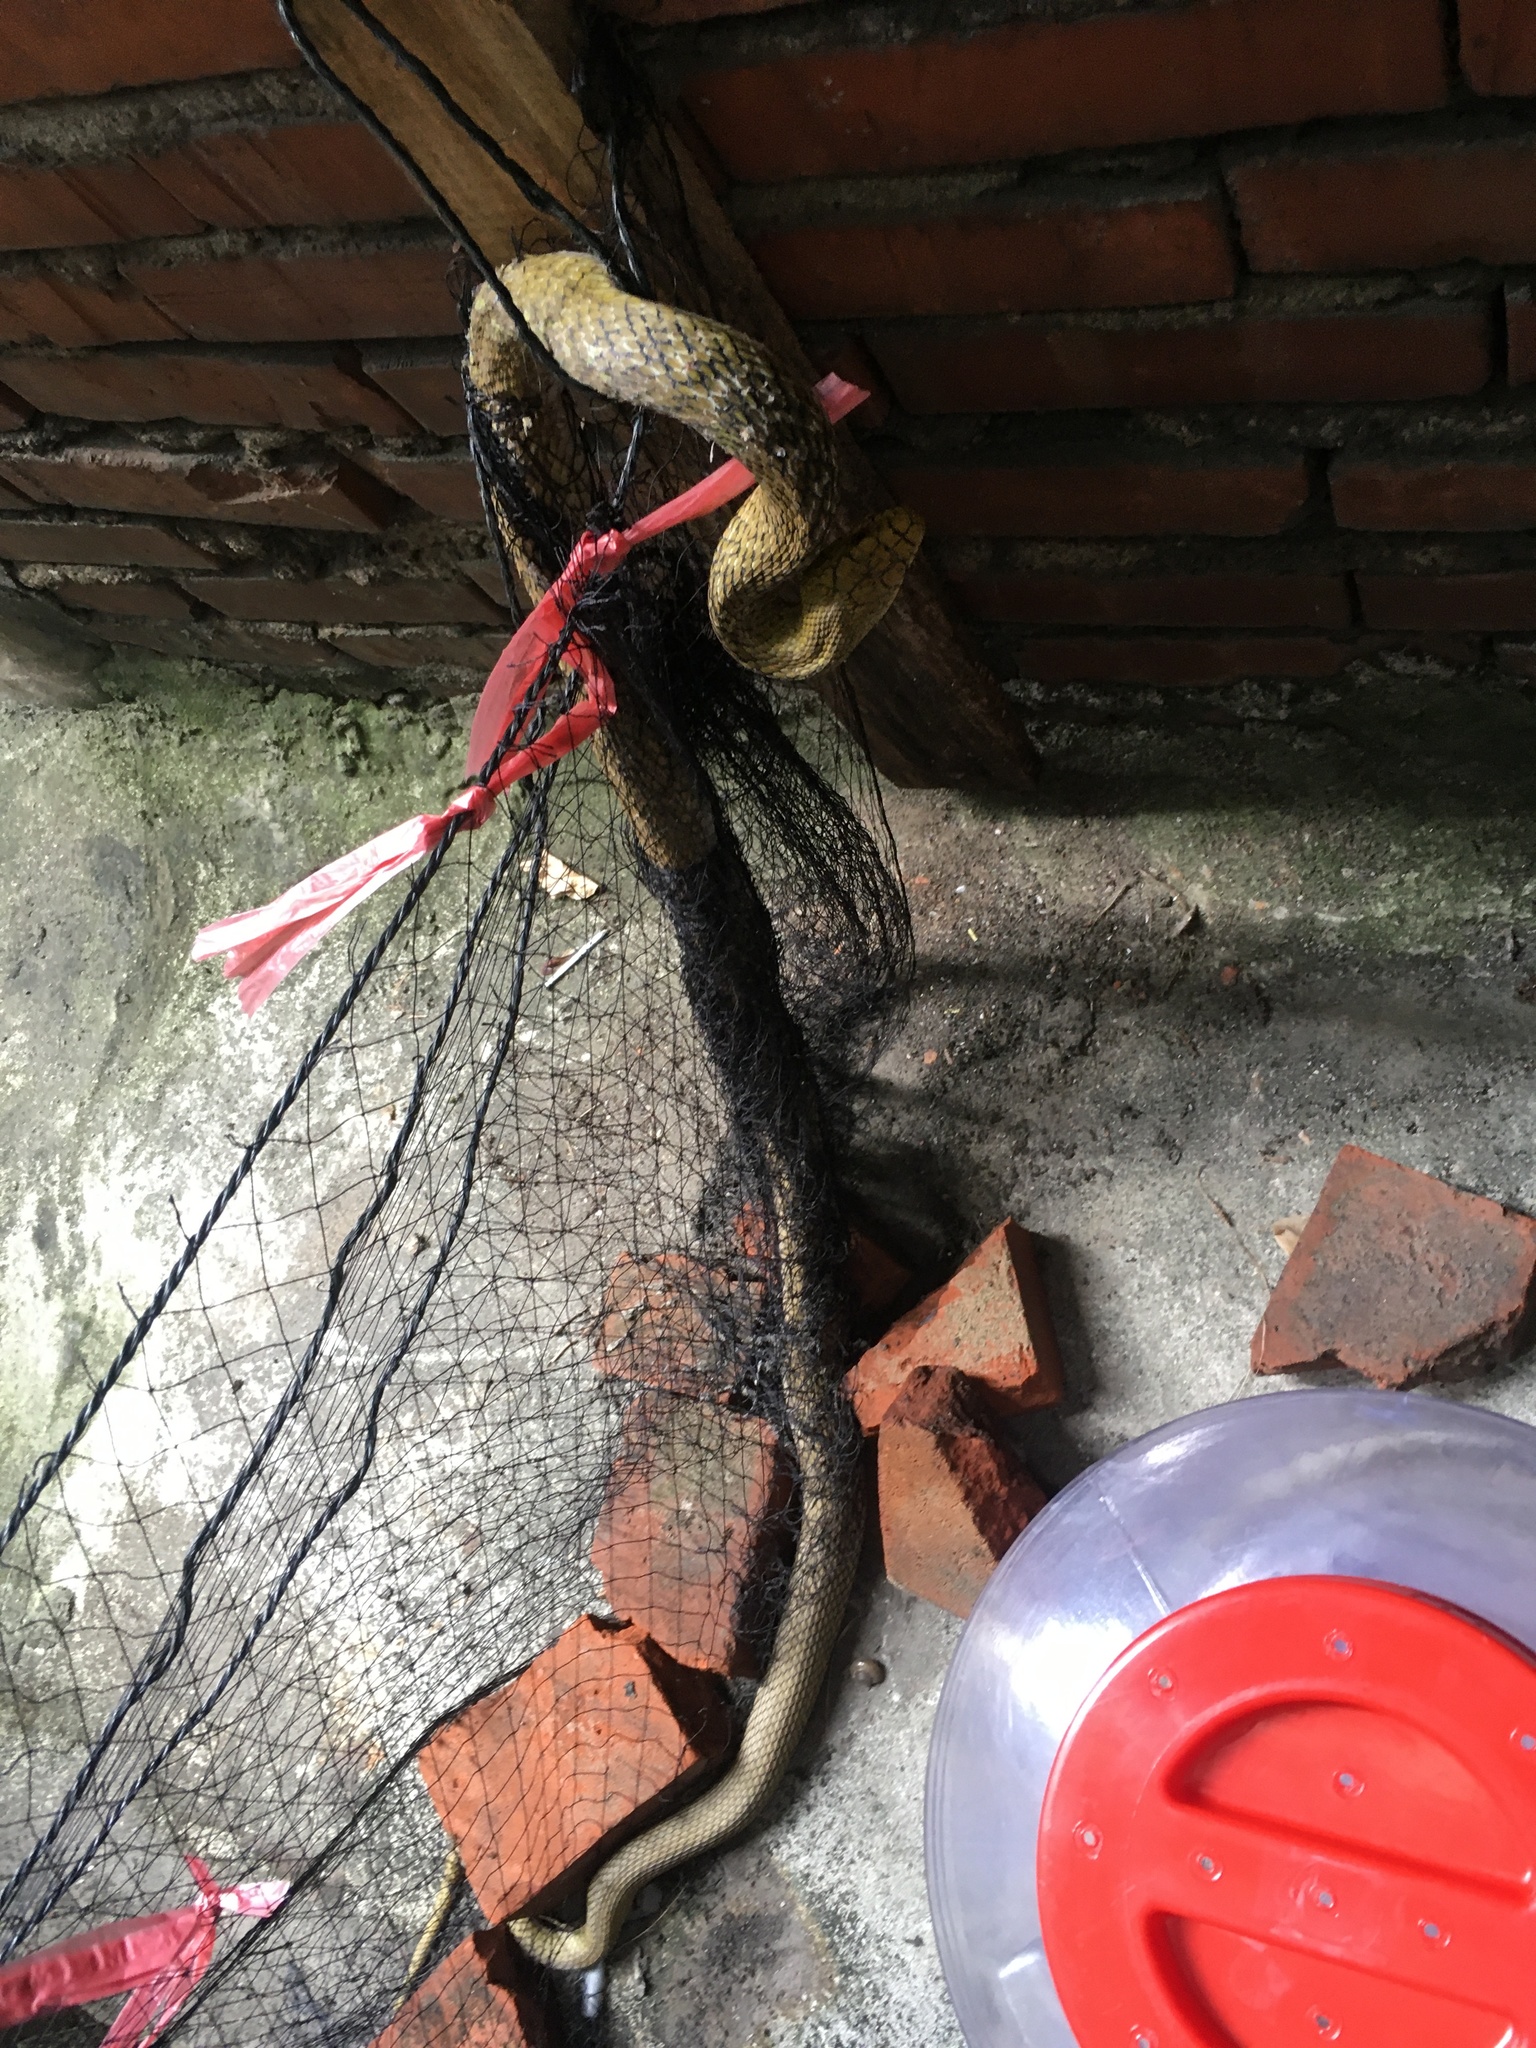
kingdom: Animalia
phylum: Chordata
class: Squamata
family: Colubridae
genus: Elaphe
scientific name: Elaphe carinata
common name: Taiwan stink snake
